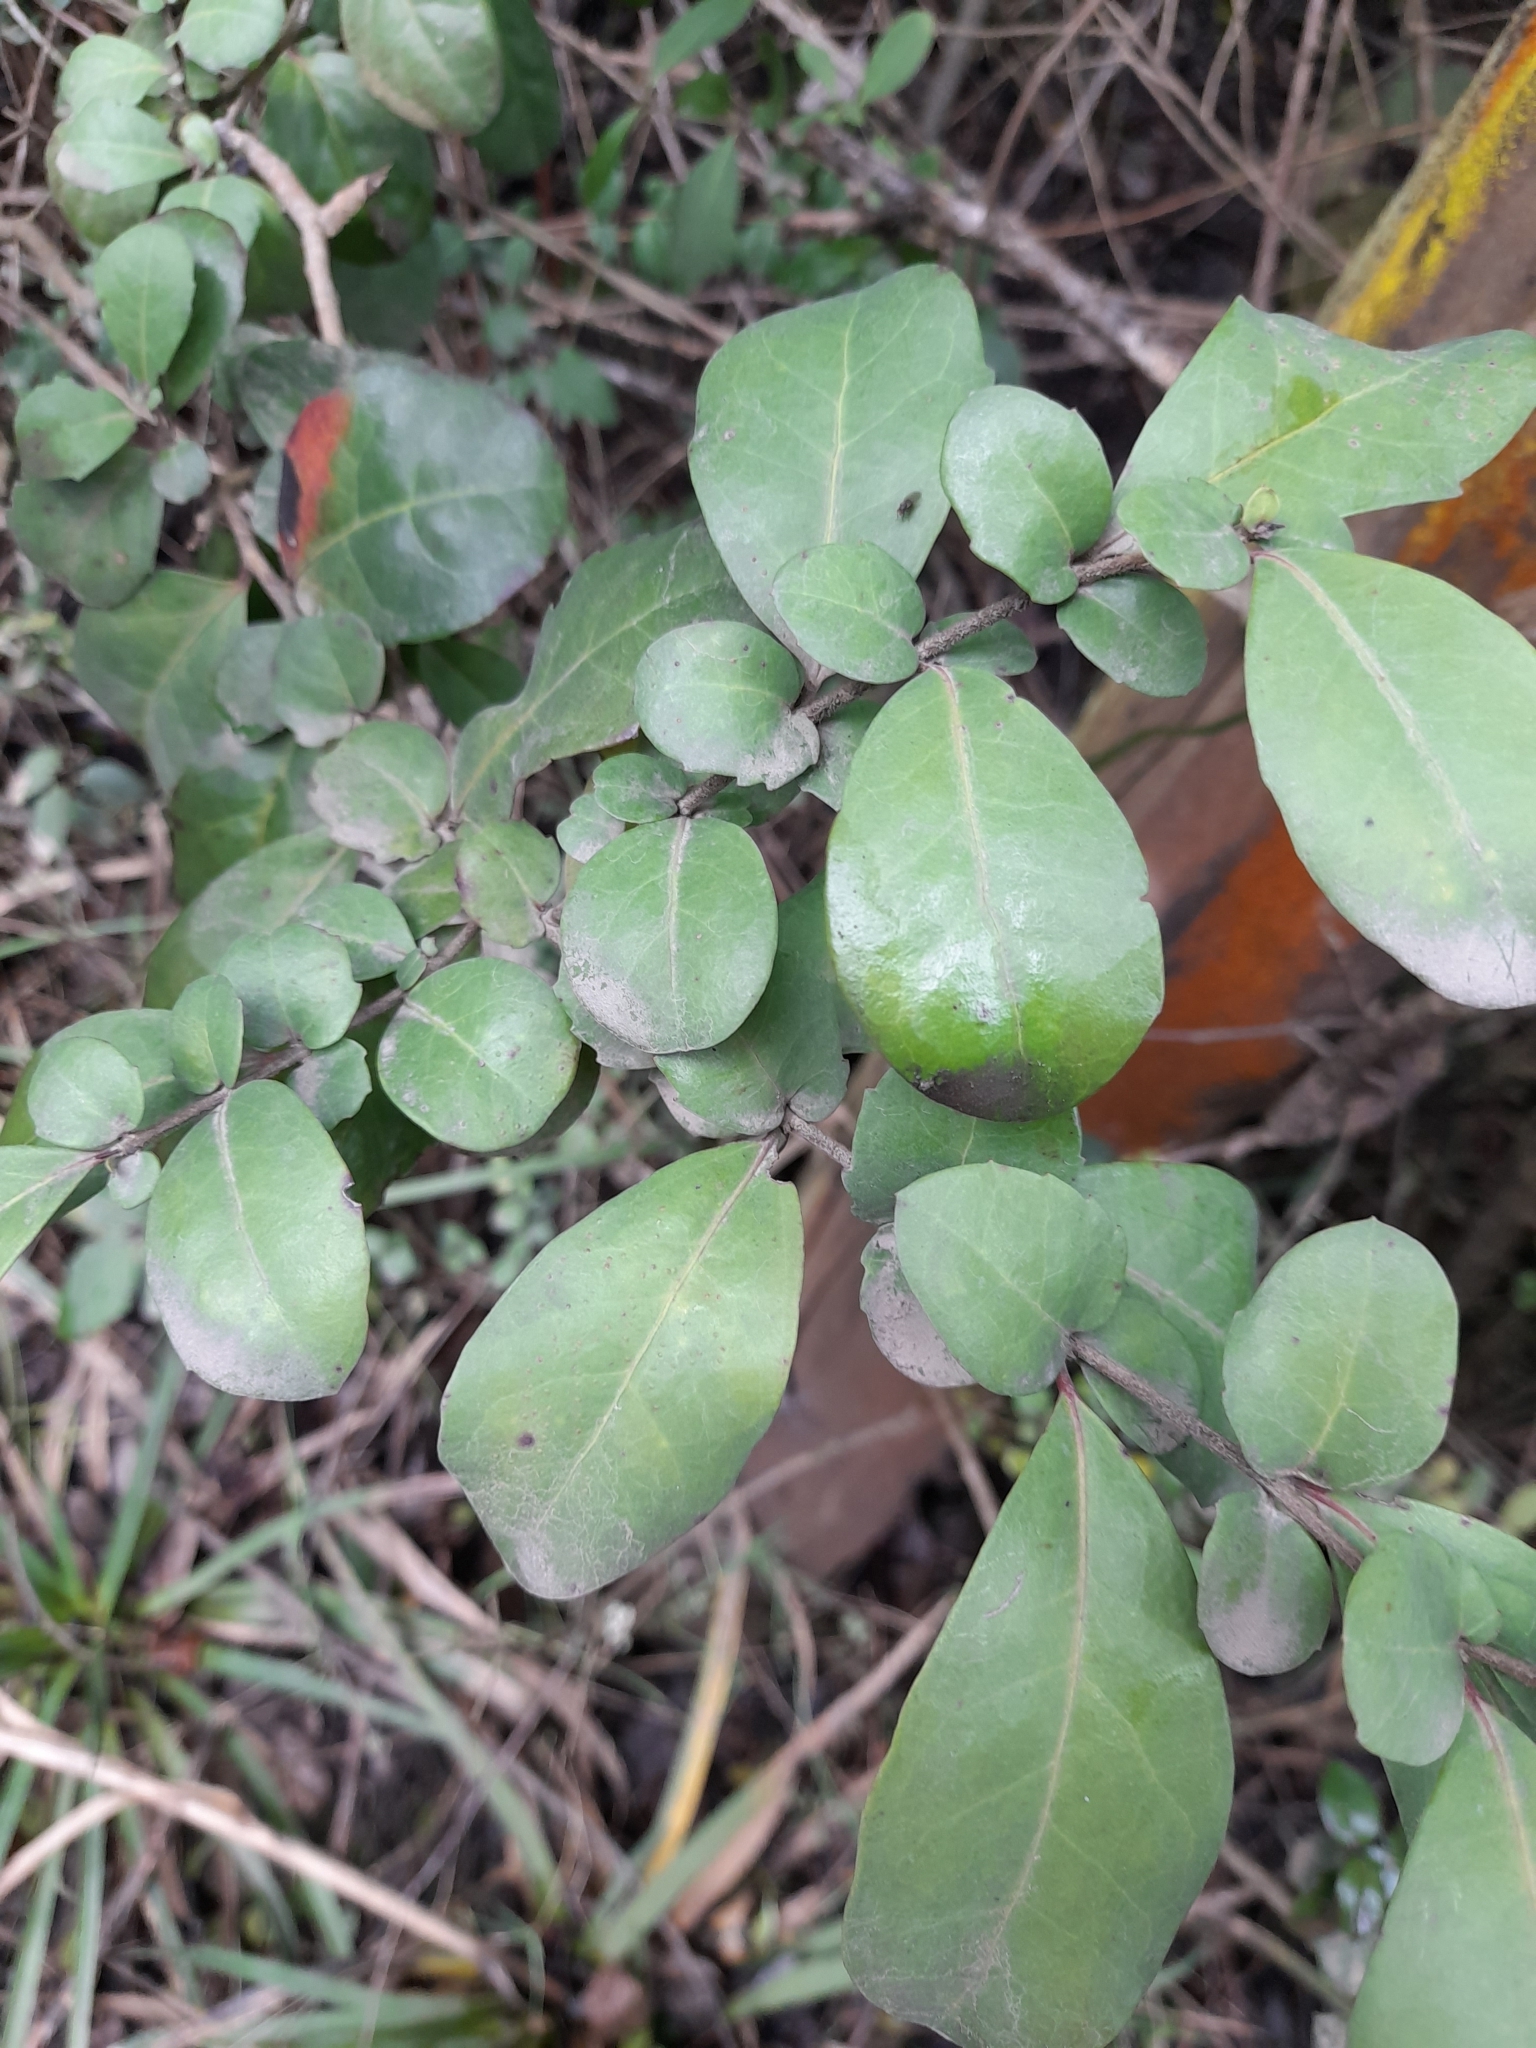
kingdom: Plantae
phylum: Tracheophyta
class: Magnoliopsida
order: Malpighiales
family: Salicaceae
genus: Azara
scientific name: Azara integrifolia
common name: Goldspire
